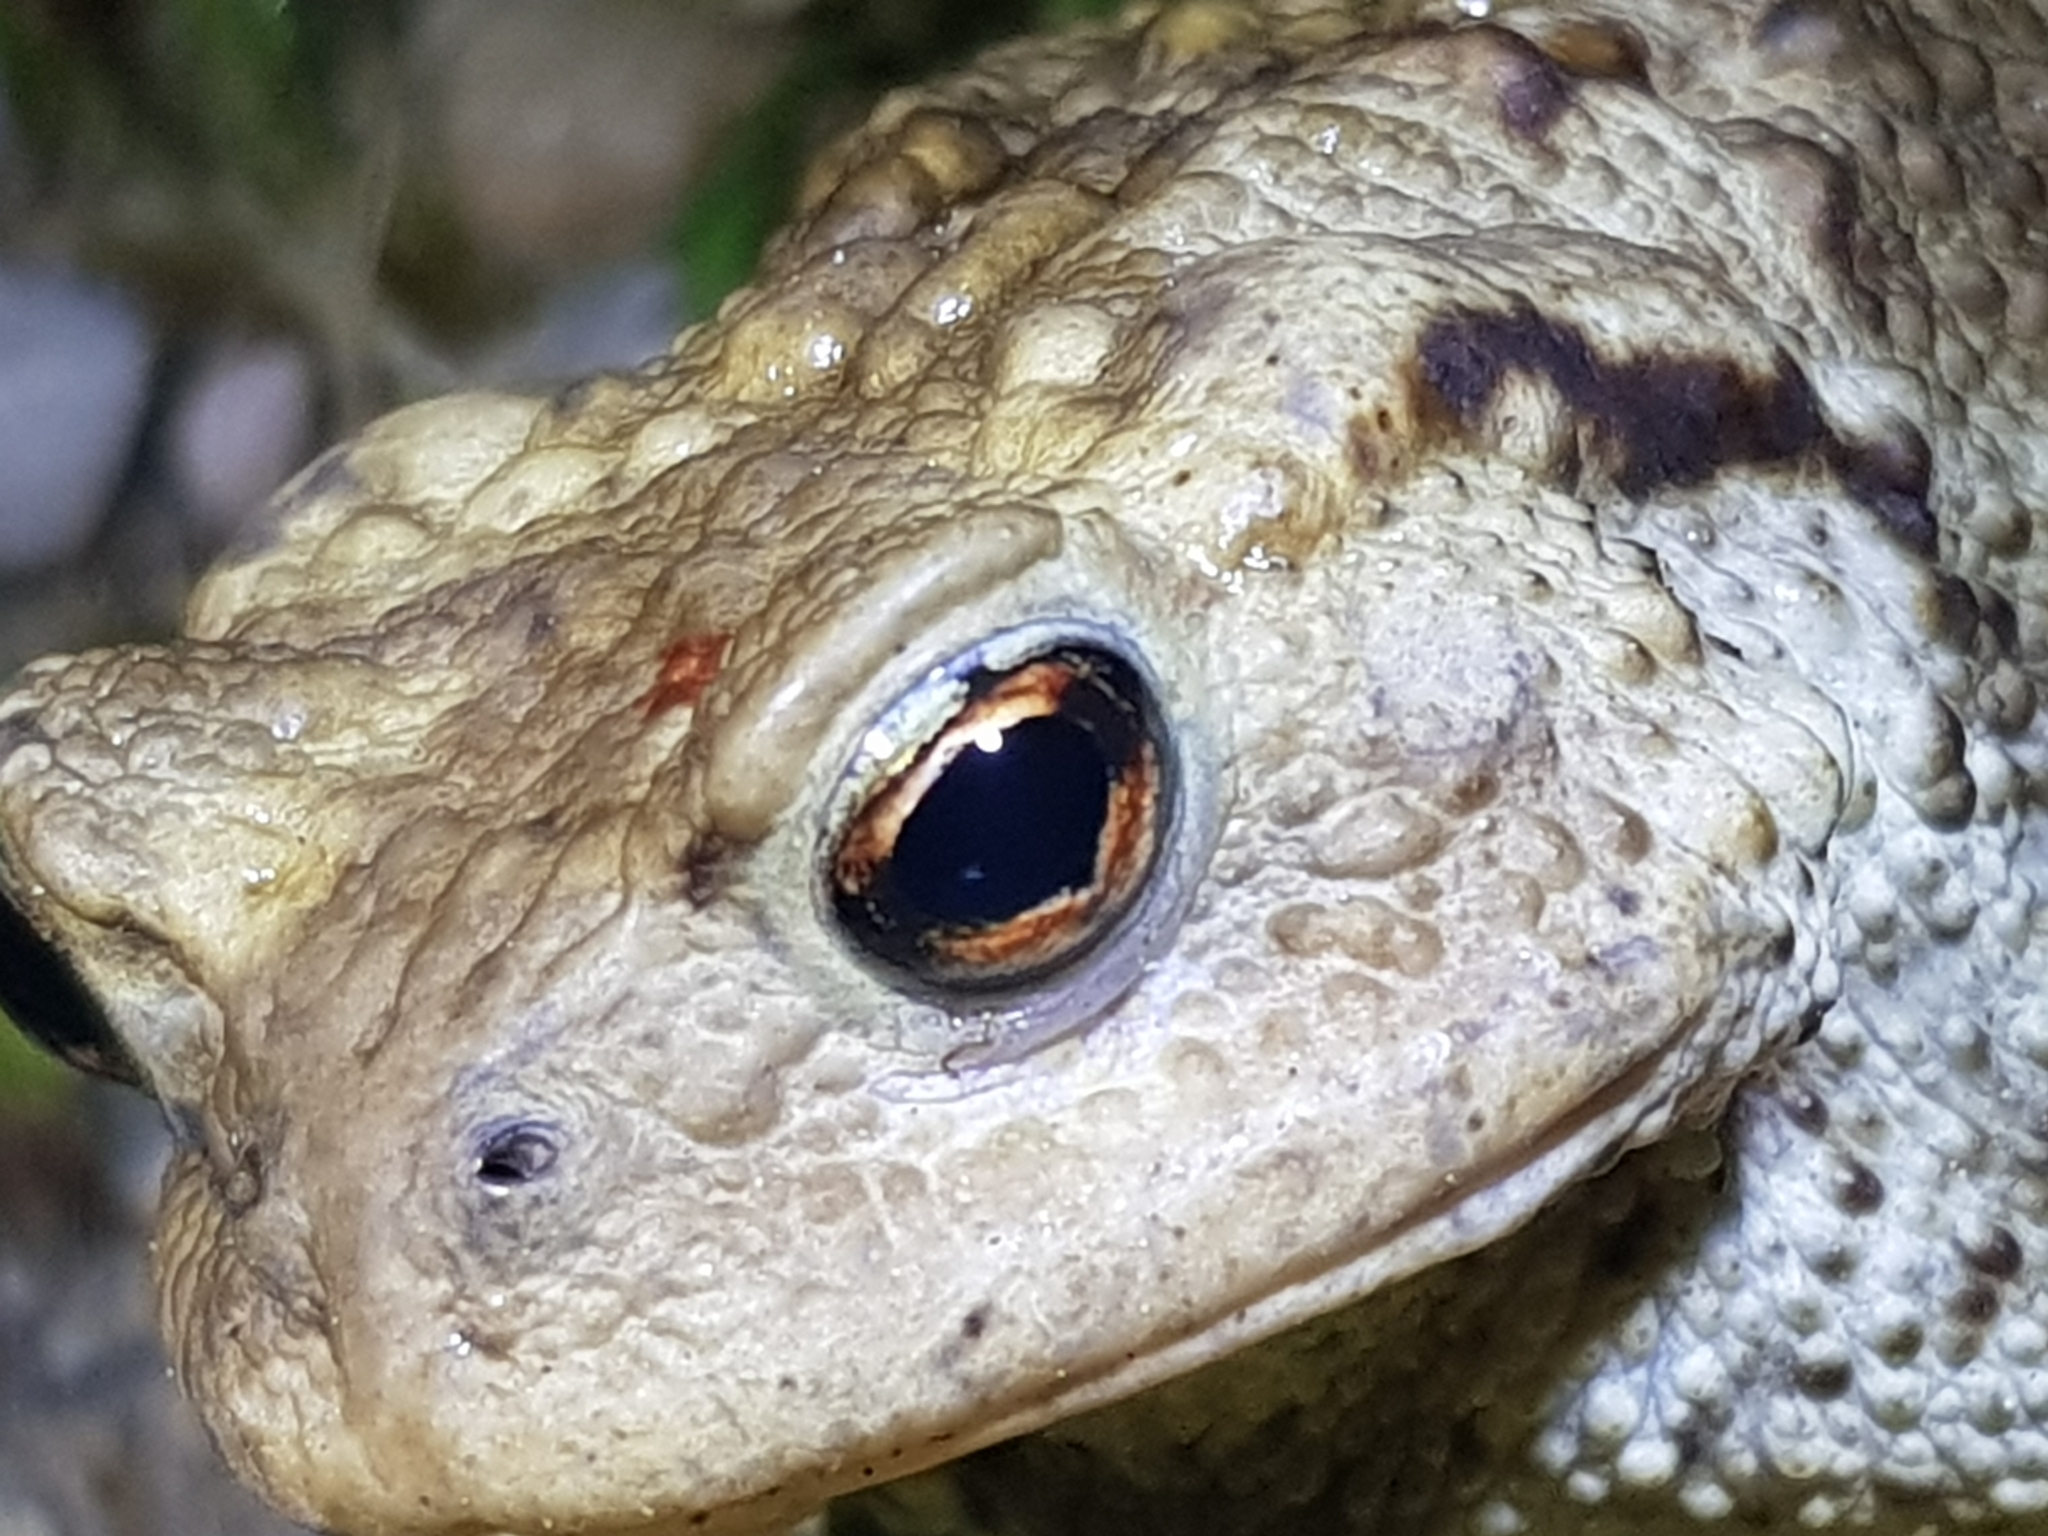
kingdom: Animalia
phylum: Chordata
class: Amphibia
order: Anura
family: Bufonidae
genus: Bufo
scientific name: Bufo bufo
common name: Common toad
